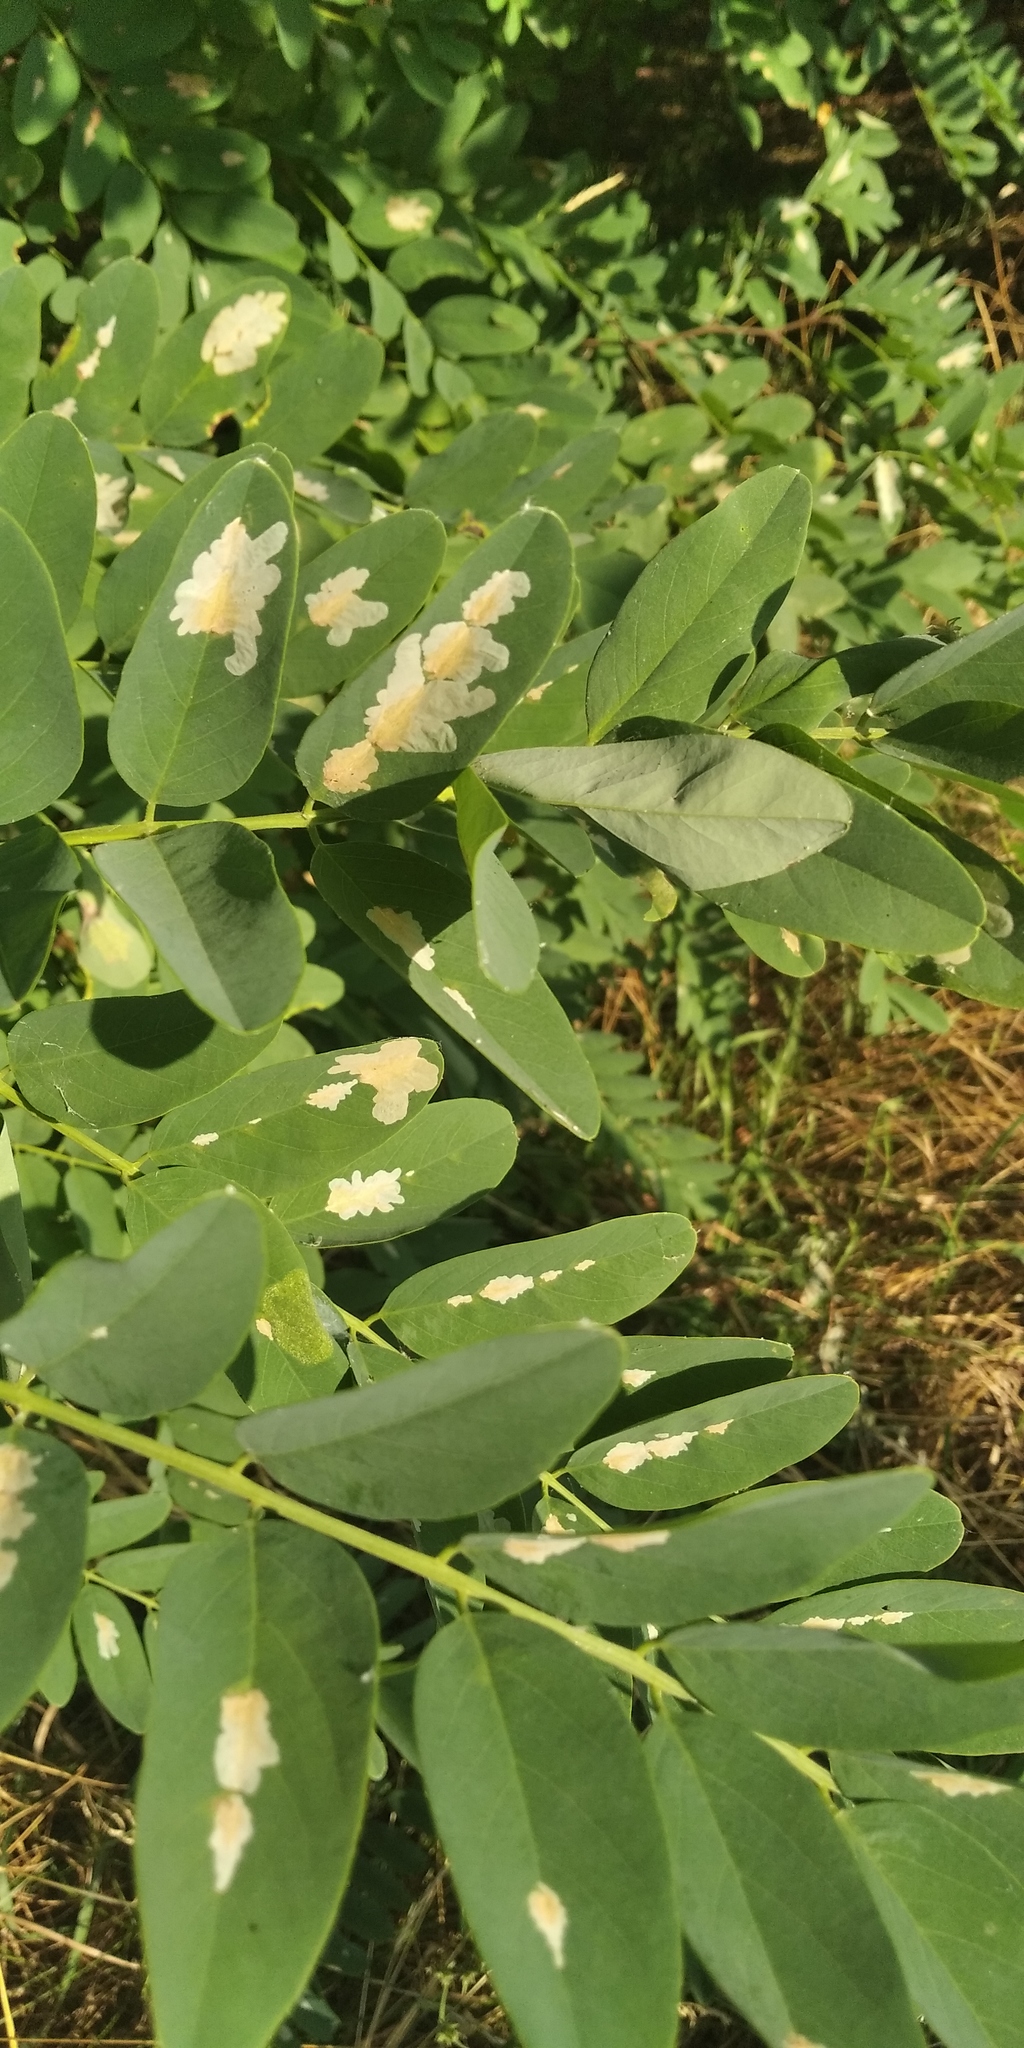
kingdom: Animalia
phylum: Arthropoda
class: Insecta
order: Lepidoptera
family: Gracillariidae
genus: Parectopa
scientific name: Parectopa robiniella
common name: Locust digitate leafminer
